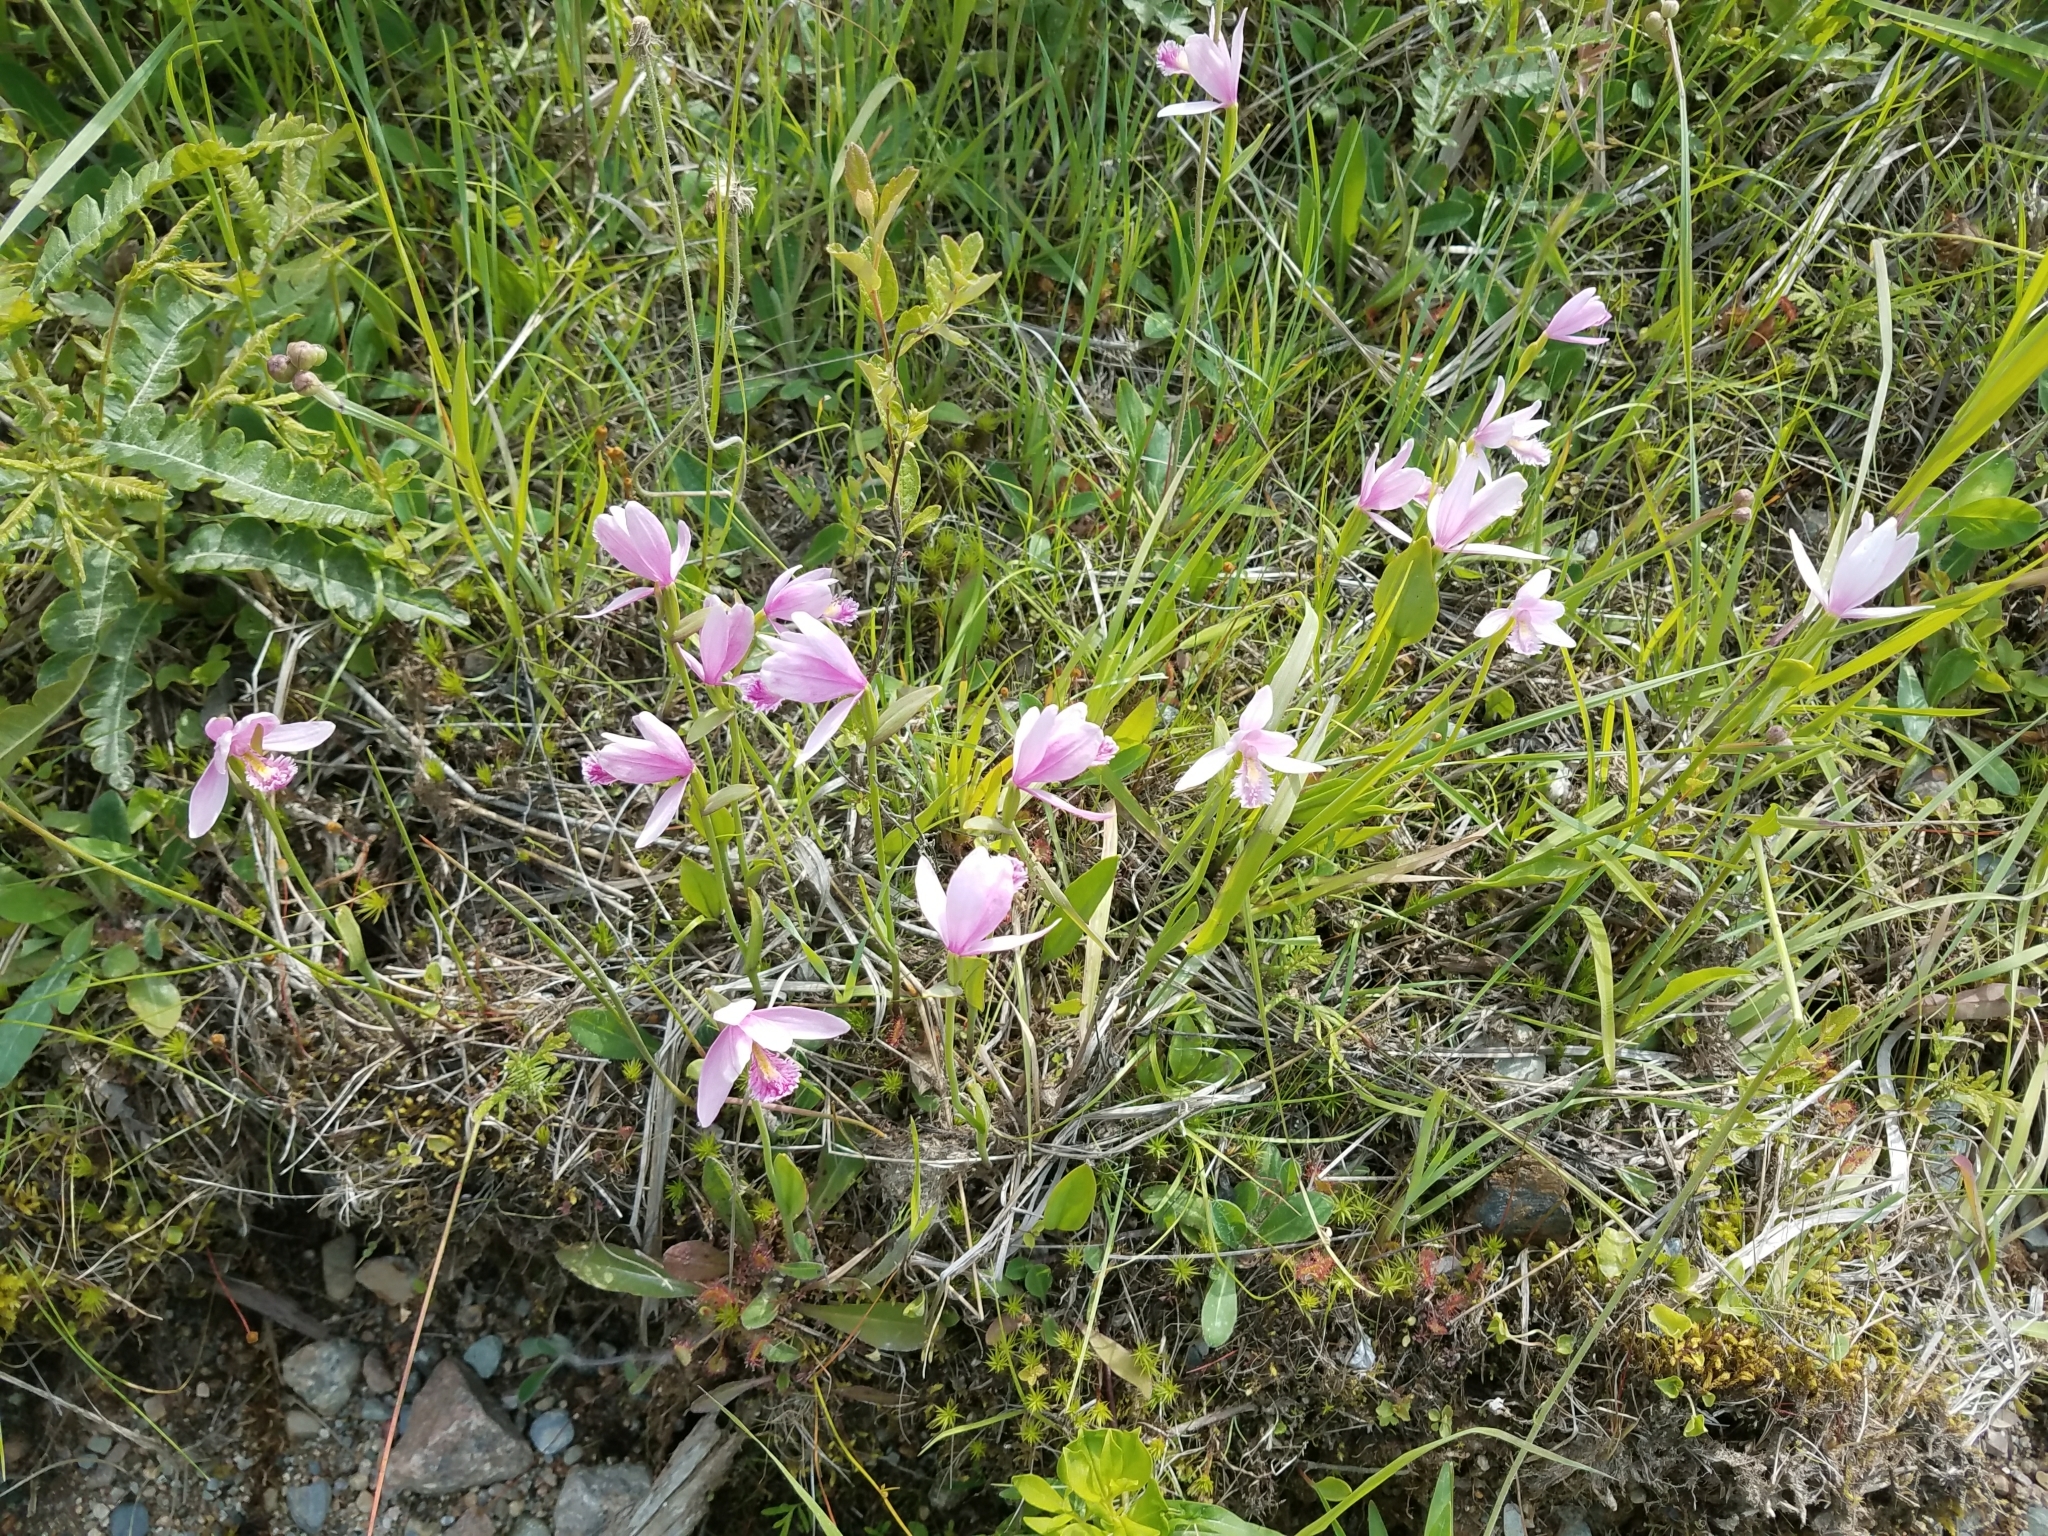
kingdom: Plantae
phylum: Tracheophyta
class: Liliopsida
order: Asparagales
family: Orchidaceae
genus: Pogonia
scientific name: Pogonia ophioglossoides
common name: Rose pogonia
